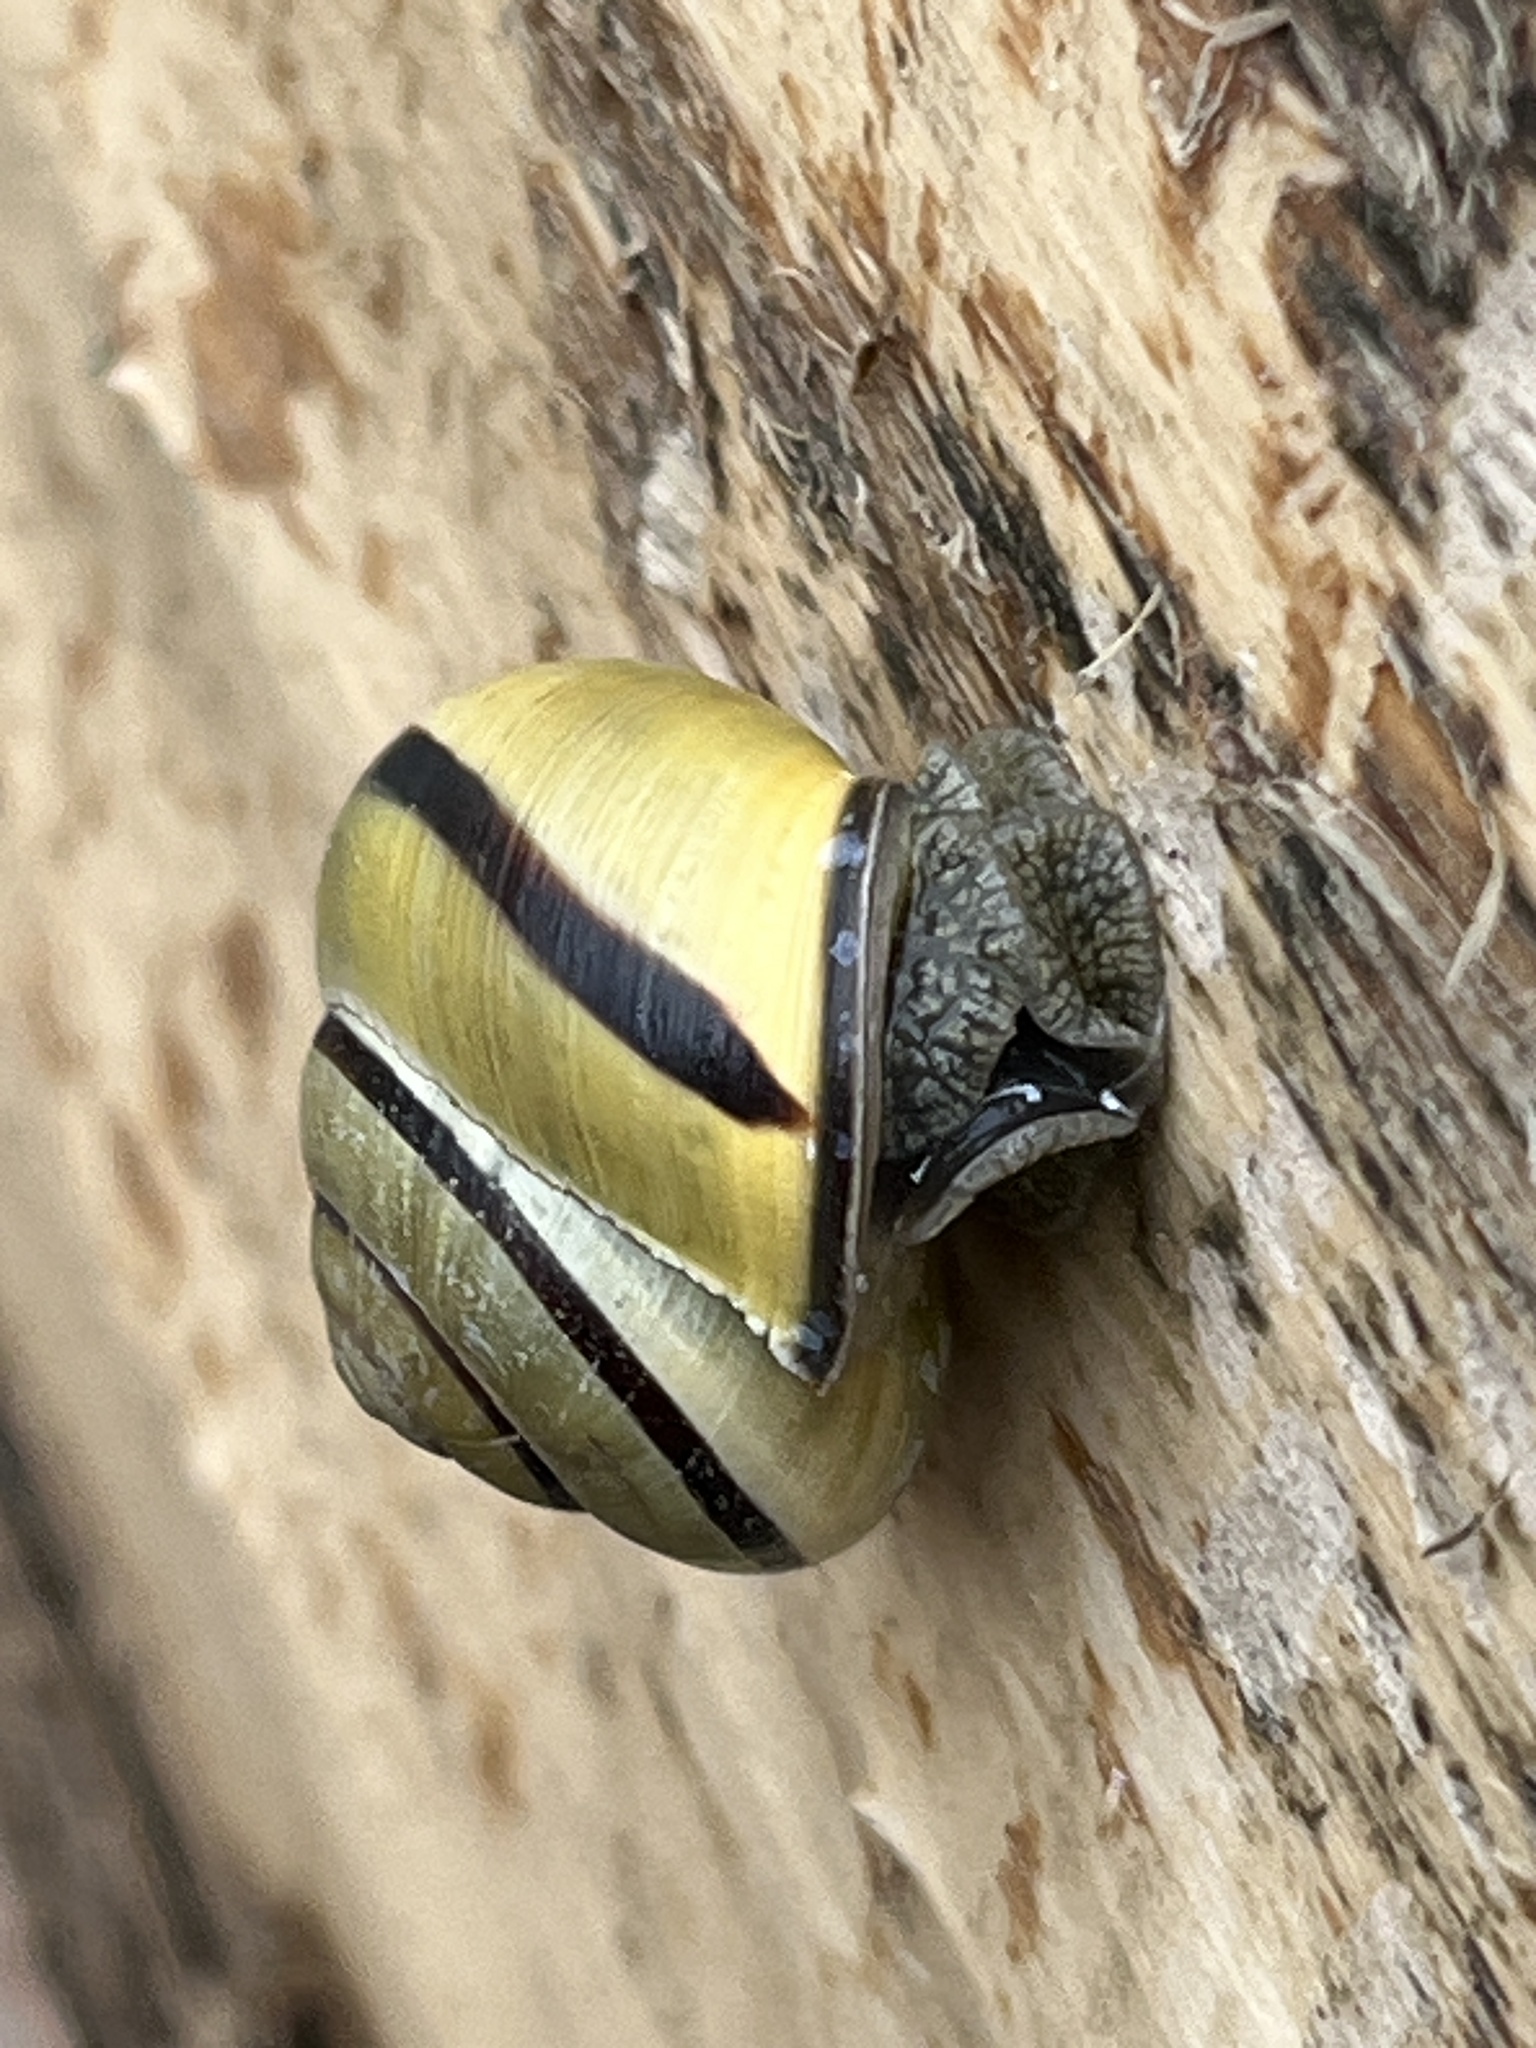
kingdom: Animalia
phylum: Mollusca
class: Gastropoda
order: Stylommatophora
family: Helicidae
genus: Cepaea
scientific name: Cepaea nemoralis
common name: Grovesnail
